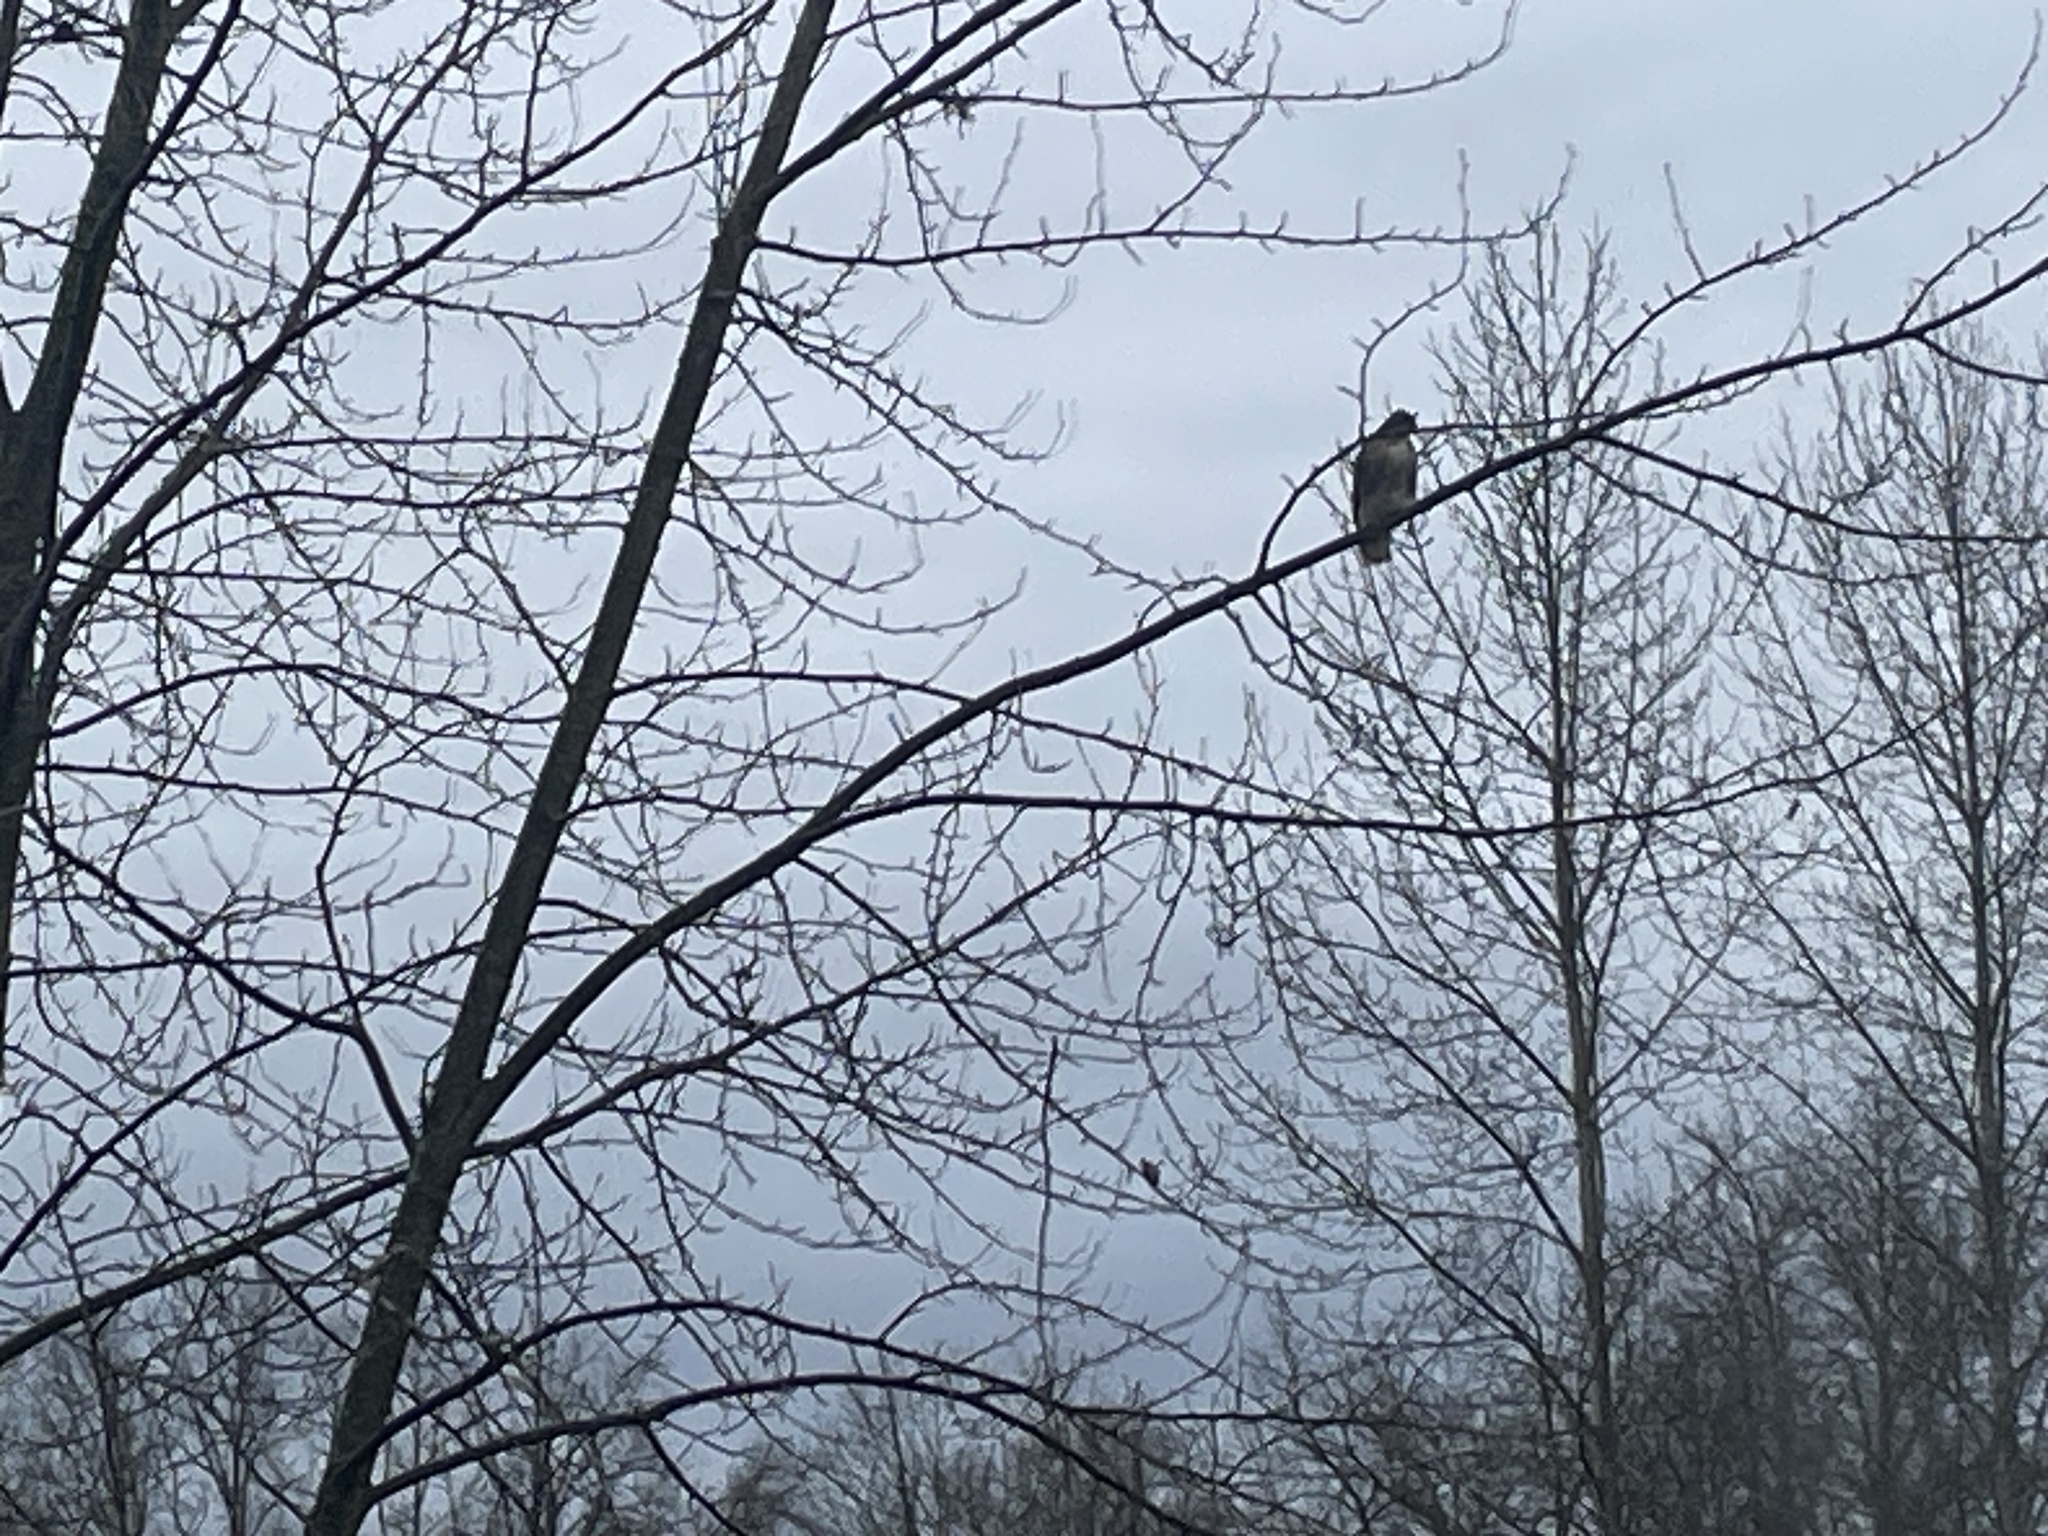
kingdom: Animalia
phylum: Chordata
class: Aves
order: Accipitriformes
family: Accipitridae
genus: Buteo
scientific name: Buteo jamaicensis
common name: Red-tailed hawk
